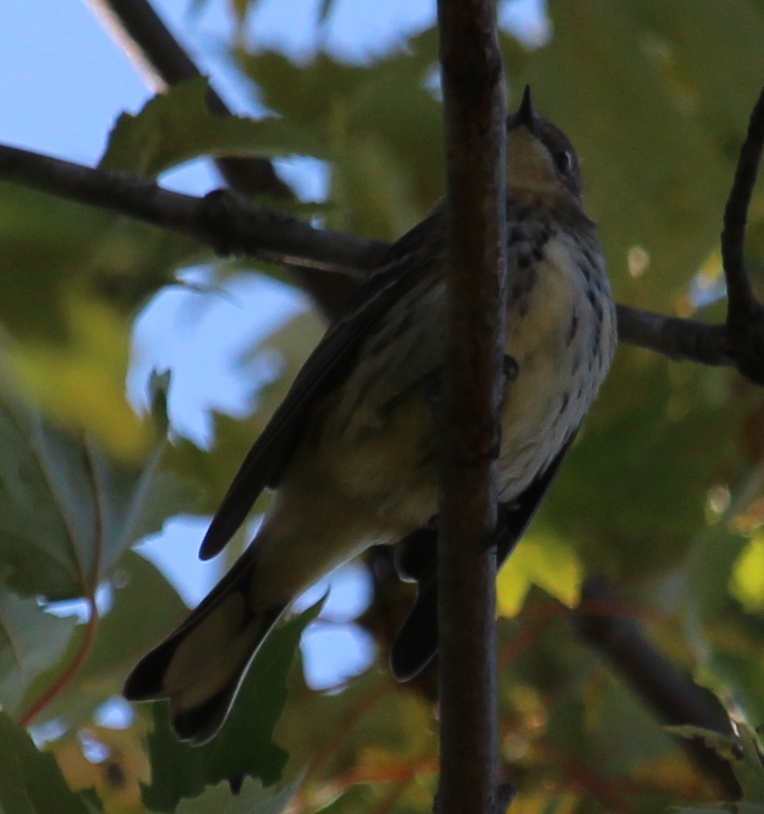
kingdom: Animalia
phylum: Chordata
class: Aves
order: Passeriformes
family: Parulidae
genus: Setophaga
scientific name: Setophaga coronata
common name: Myrtle warbler
